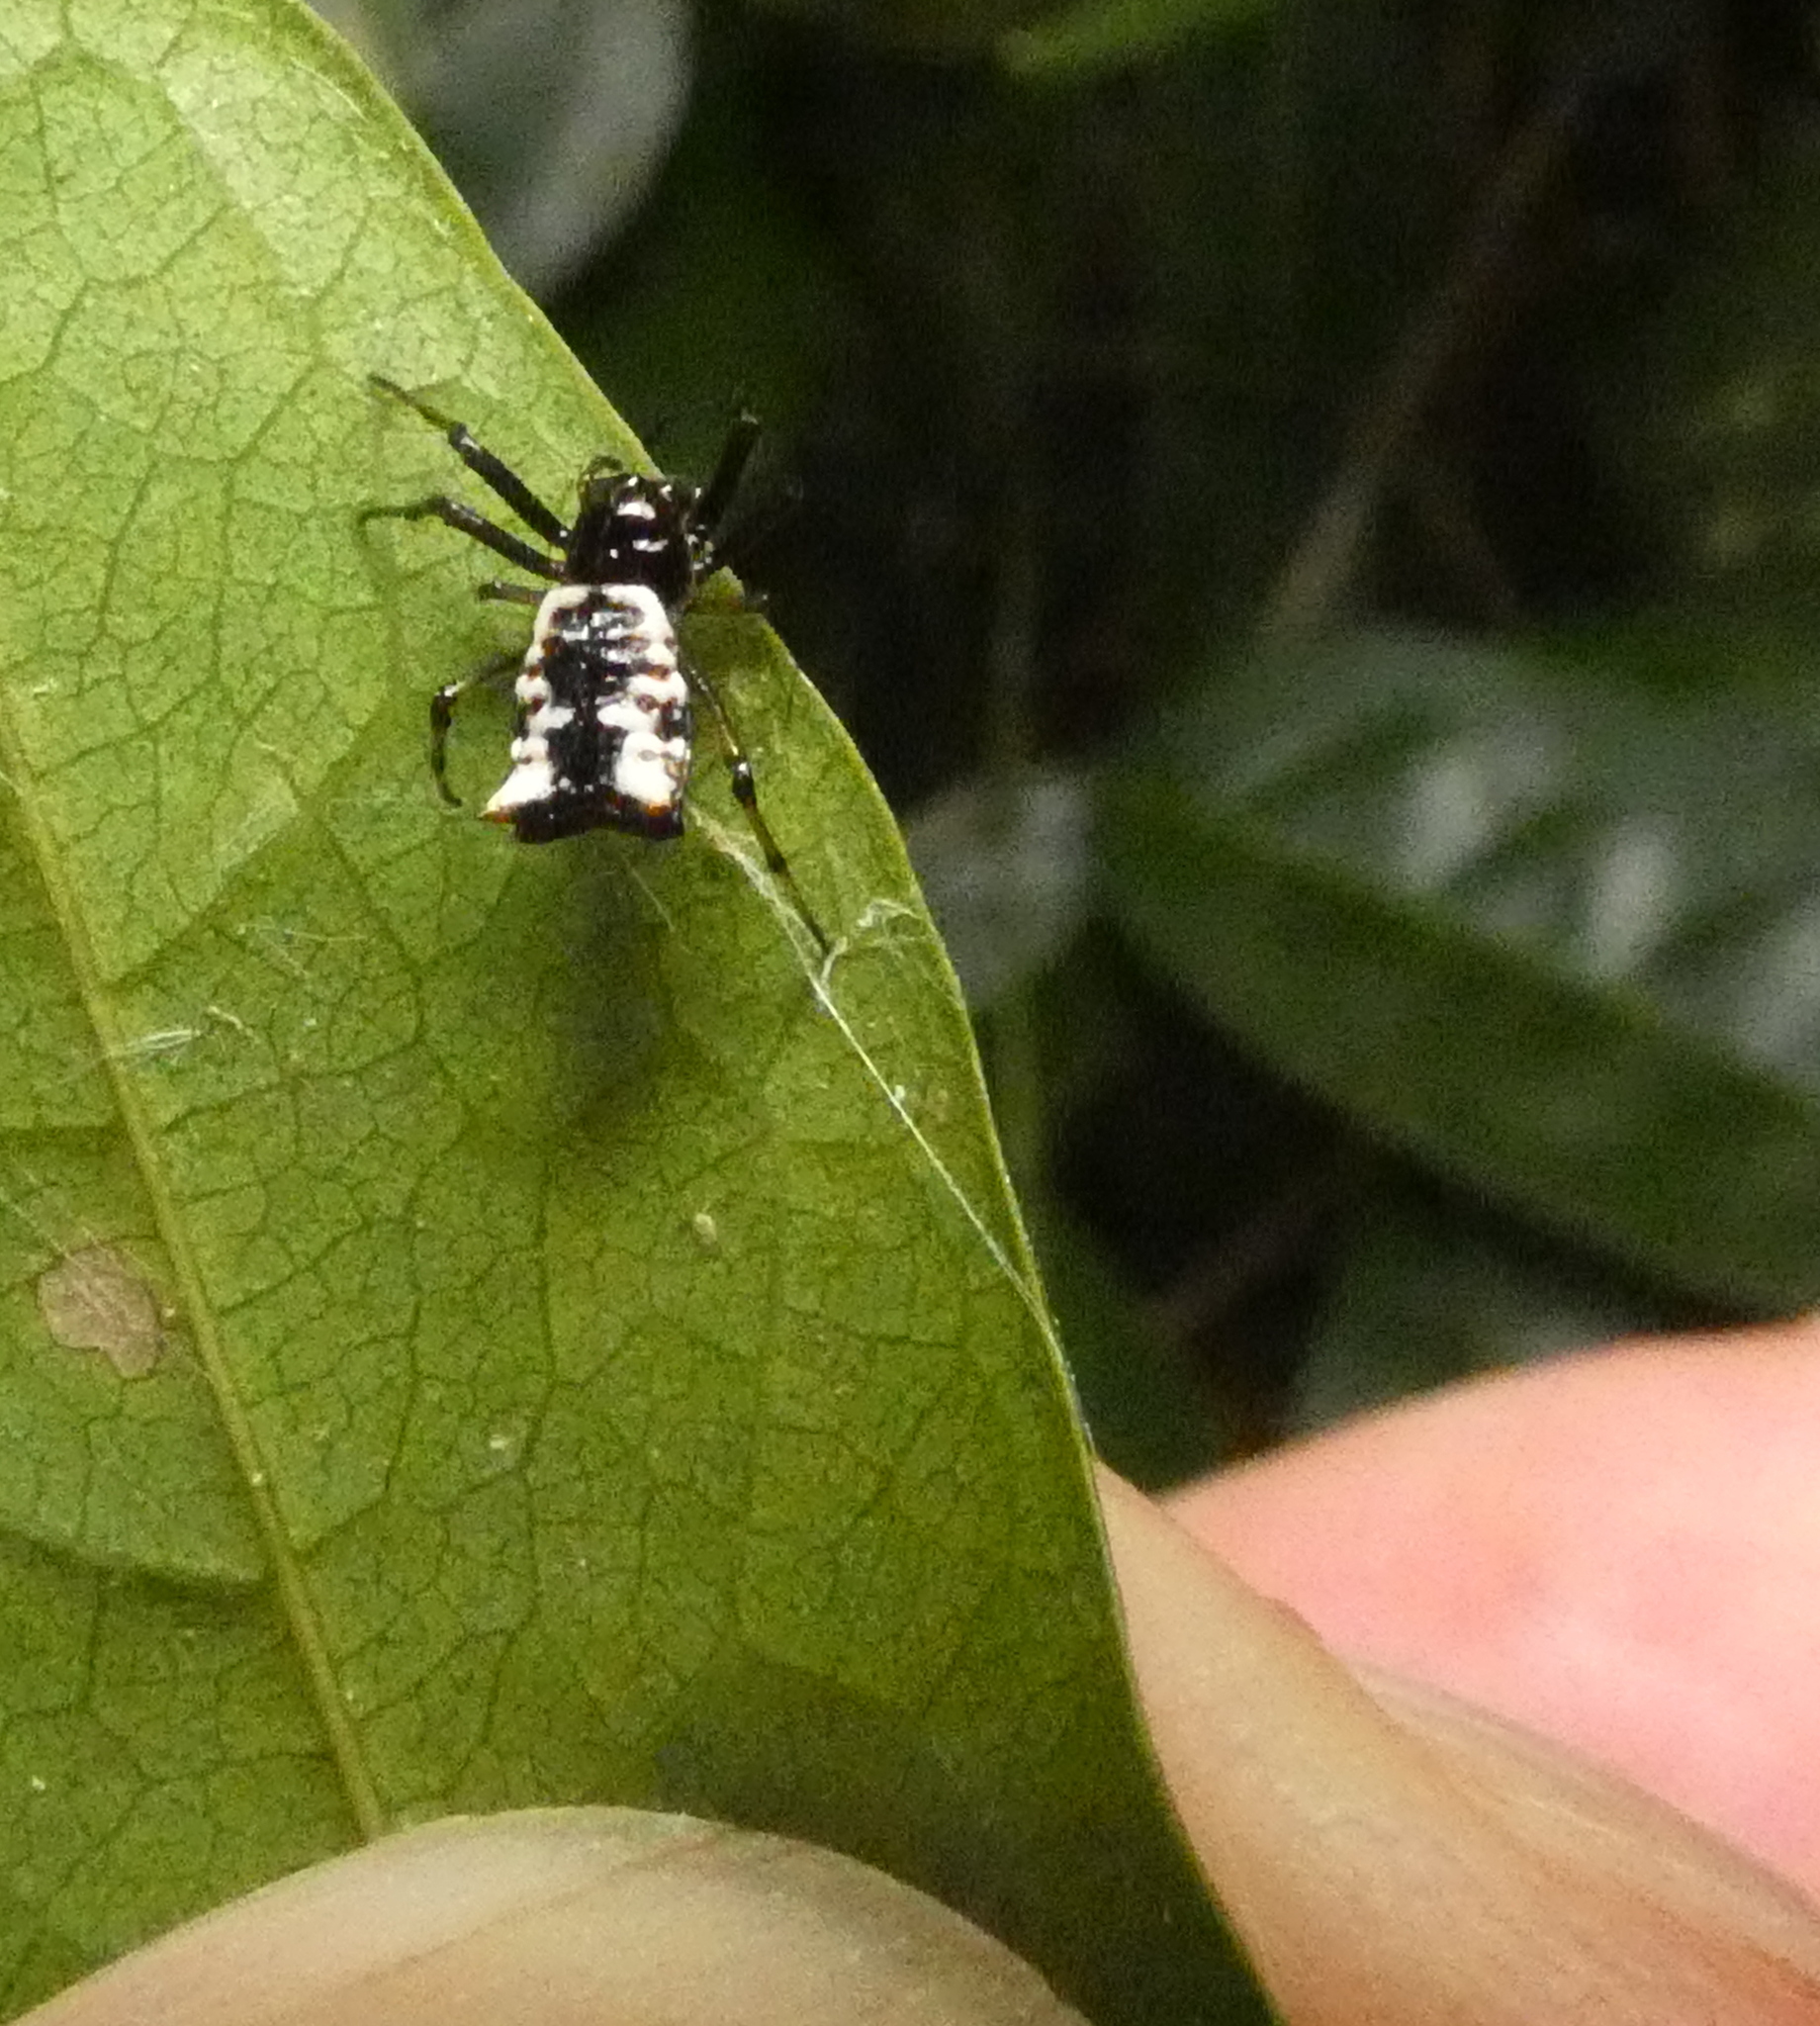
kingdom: Animalia
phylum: Arthropoda
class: Arachnida
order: Araneae
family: Araneidae
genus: Micrathena
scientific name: Micrathena patruelis
